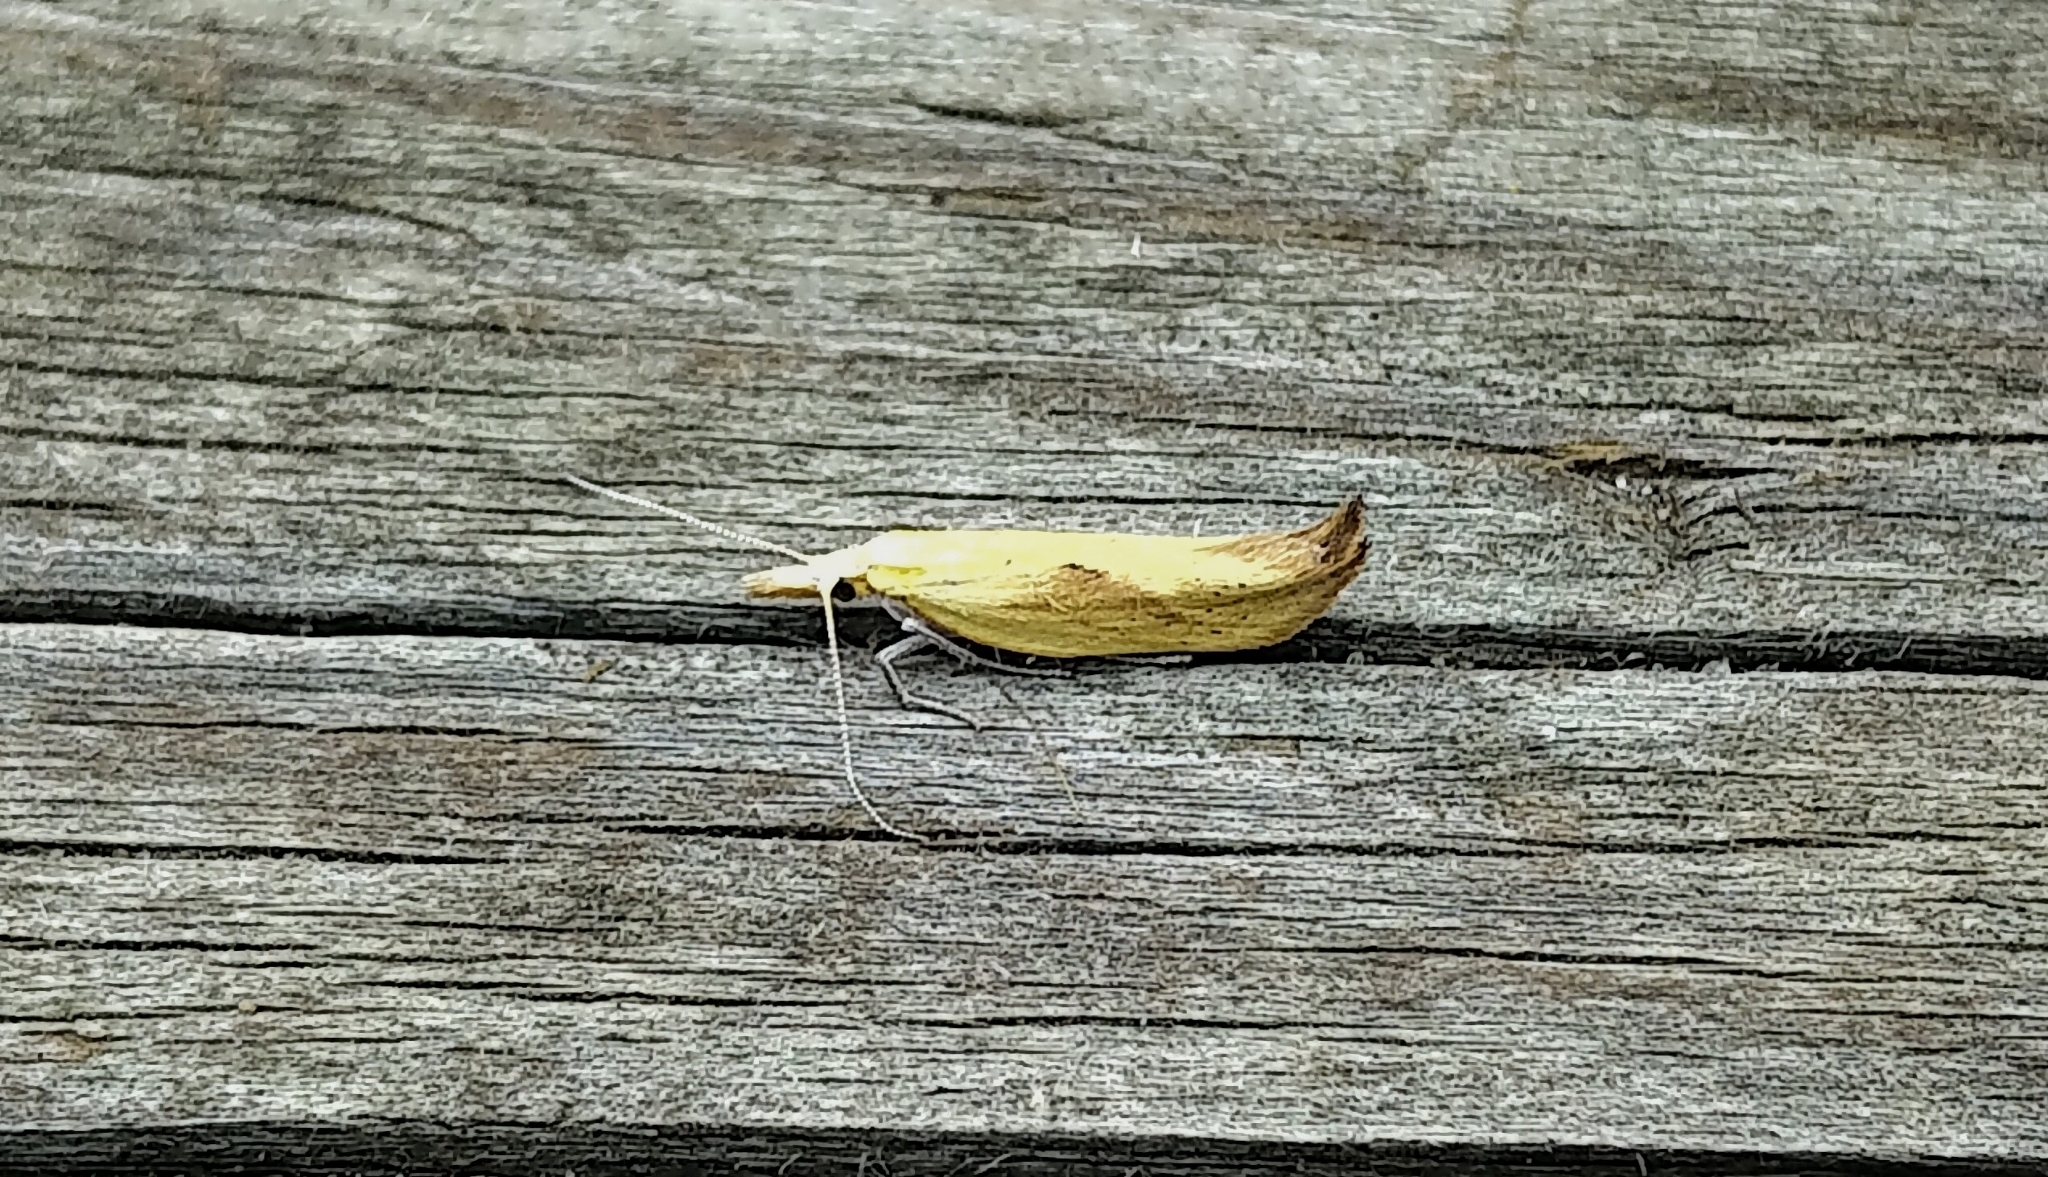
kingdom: Animalia
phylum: Arthropoda
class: Insecta
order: Lepidoptera
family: Ypsolophidae
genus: Ypsolopha
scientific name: Ypsolopha canariella
